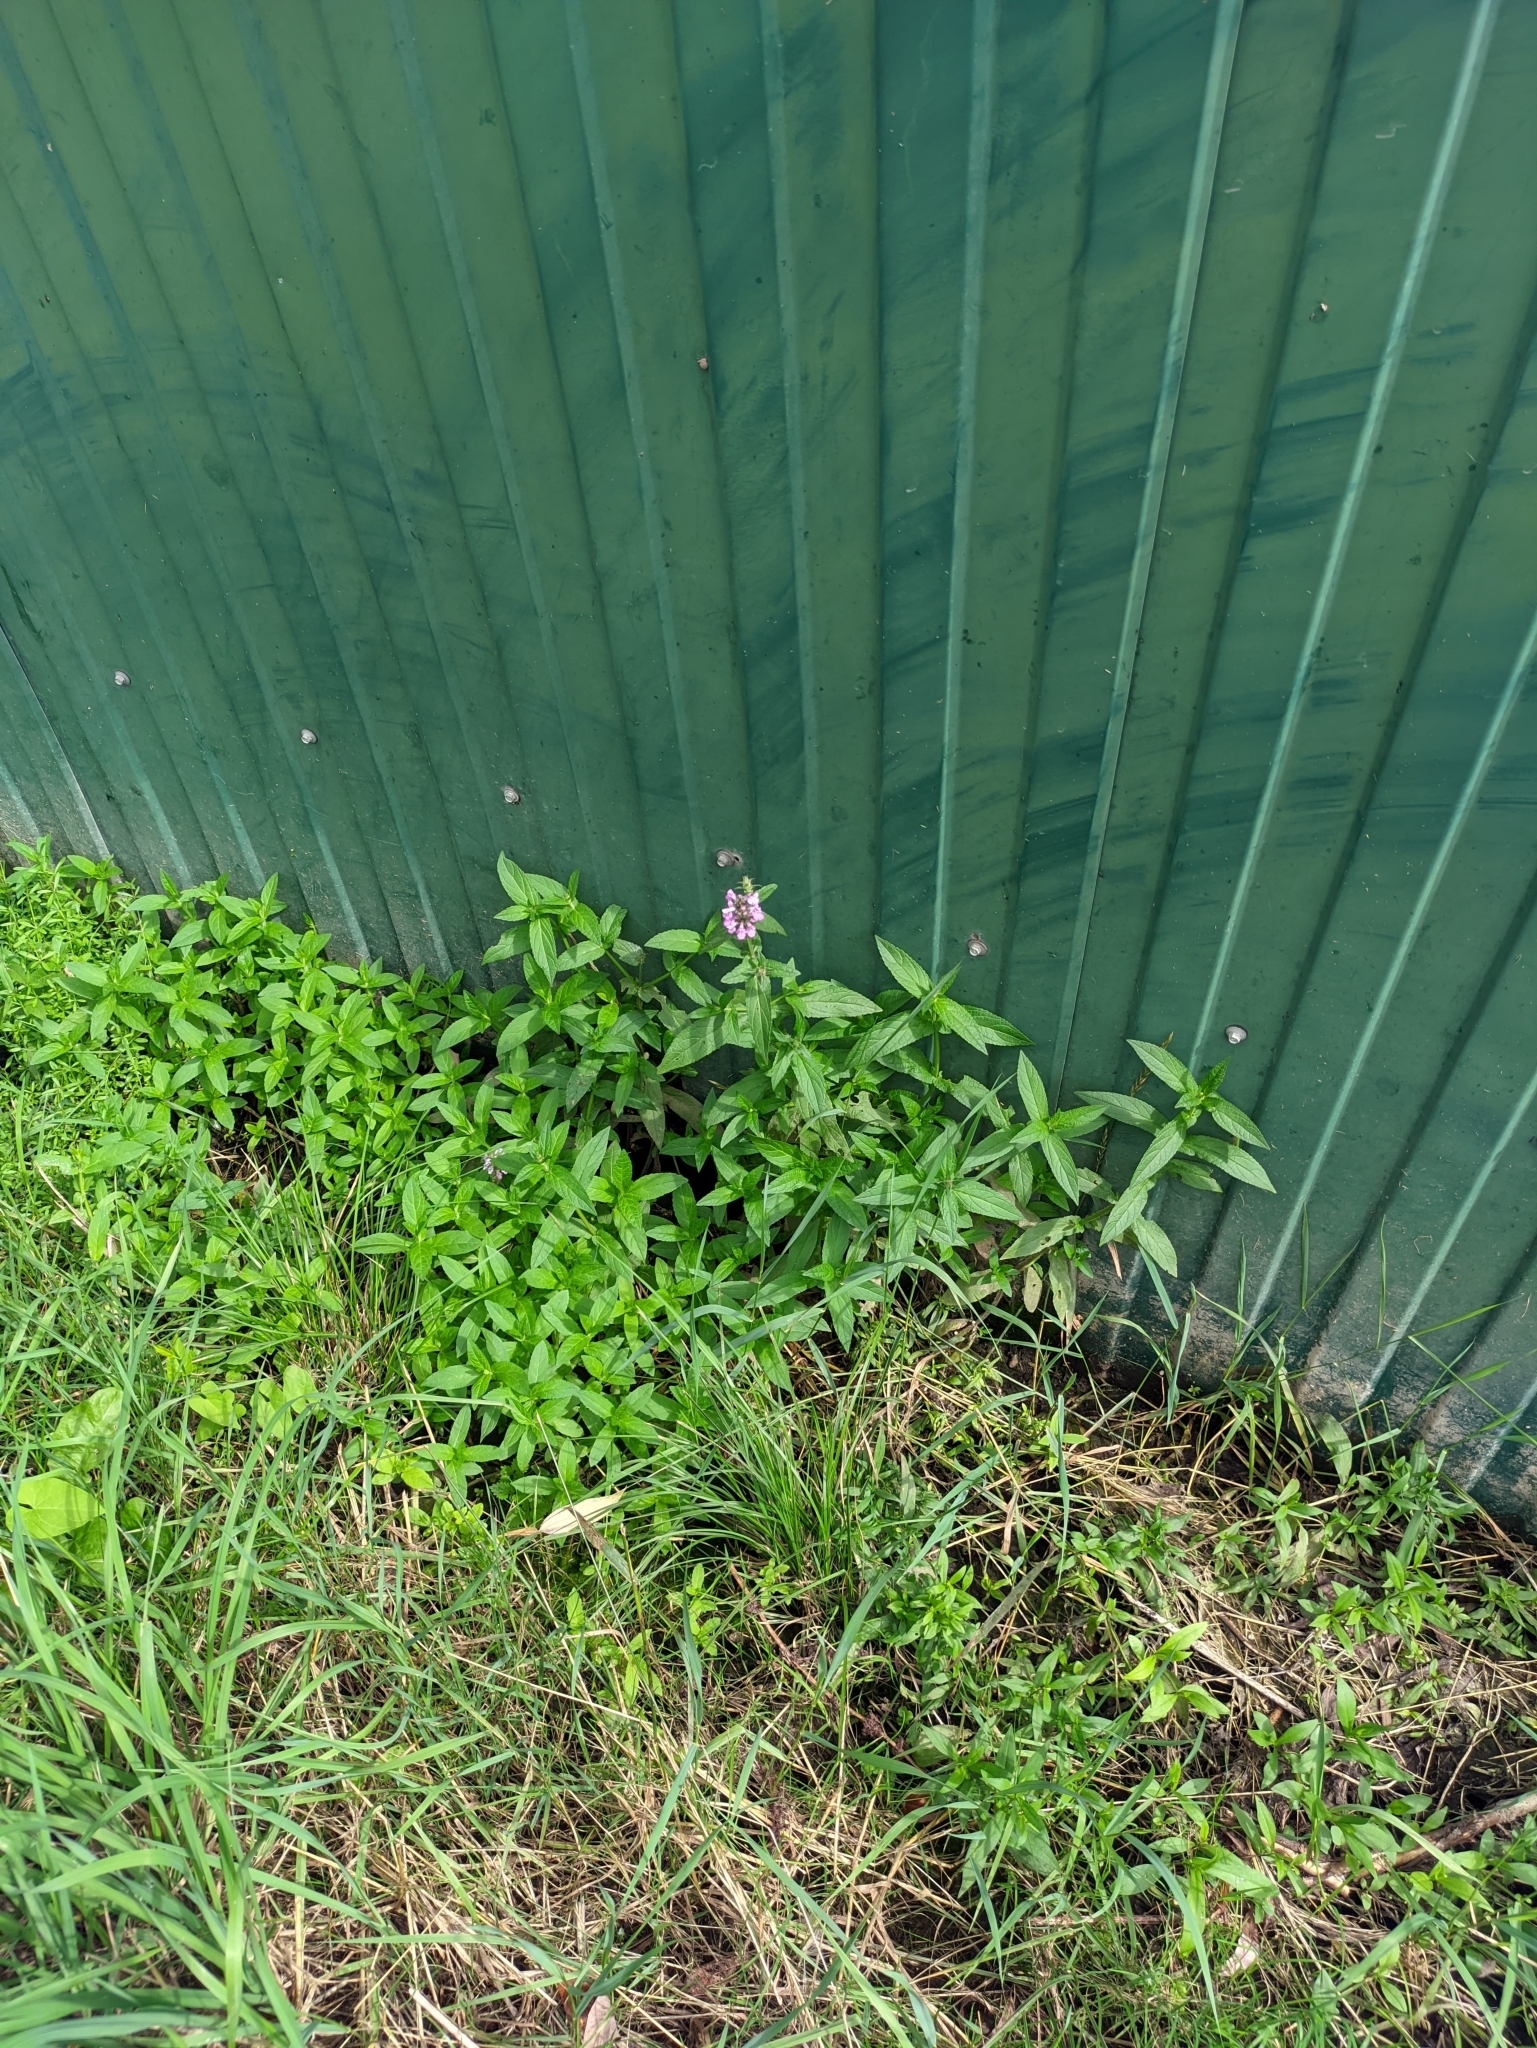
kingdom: Plantae
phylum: Tracheophyta
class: Magnoliopsida
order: Lamiales
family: Lamiaceae
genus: Stachys
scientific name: Stachys palustris
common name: Marsh woundwort
